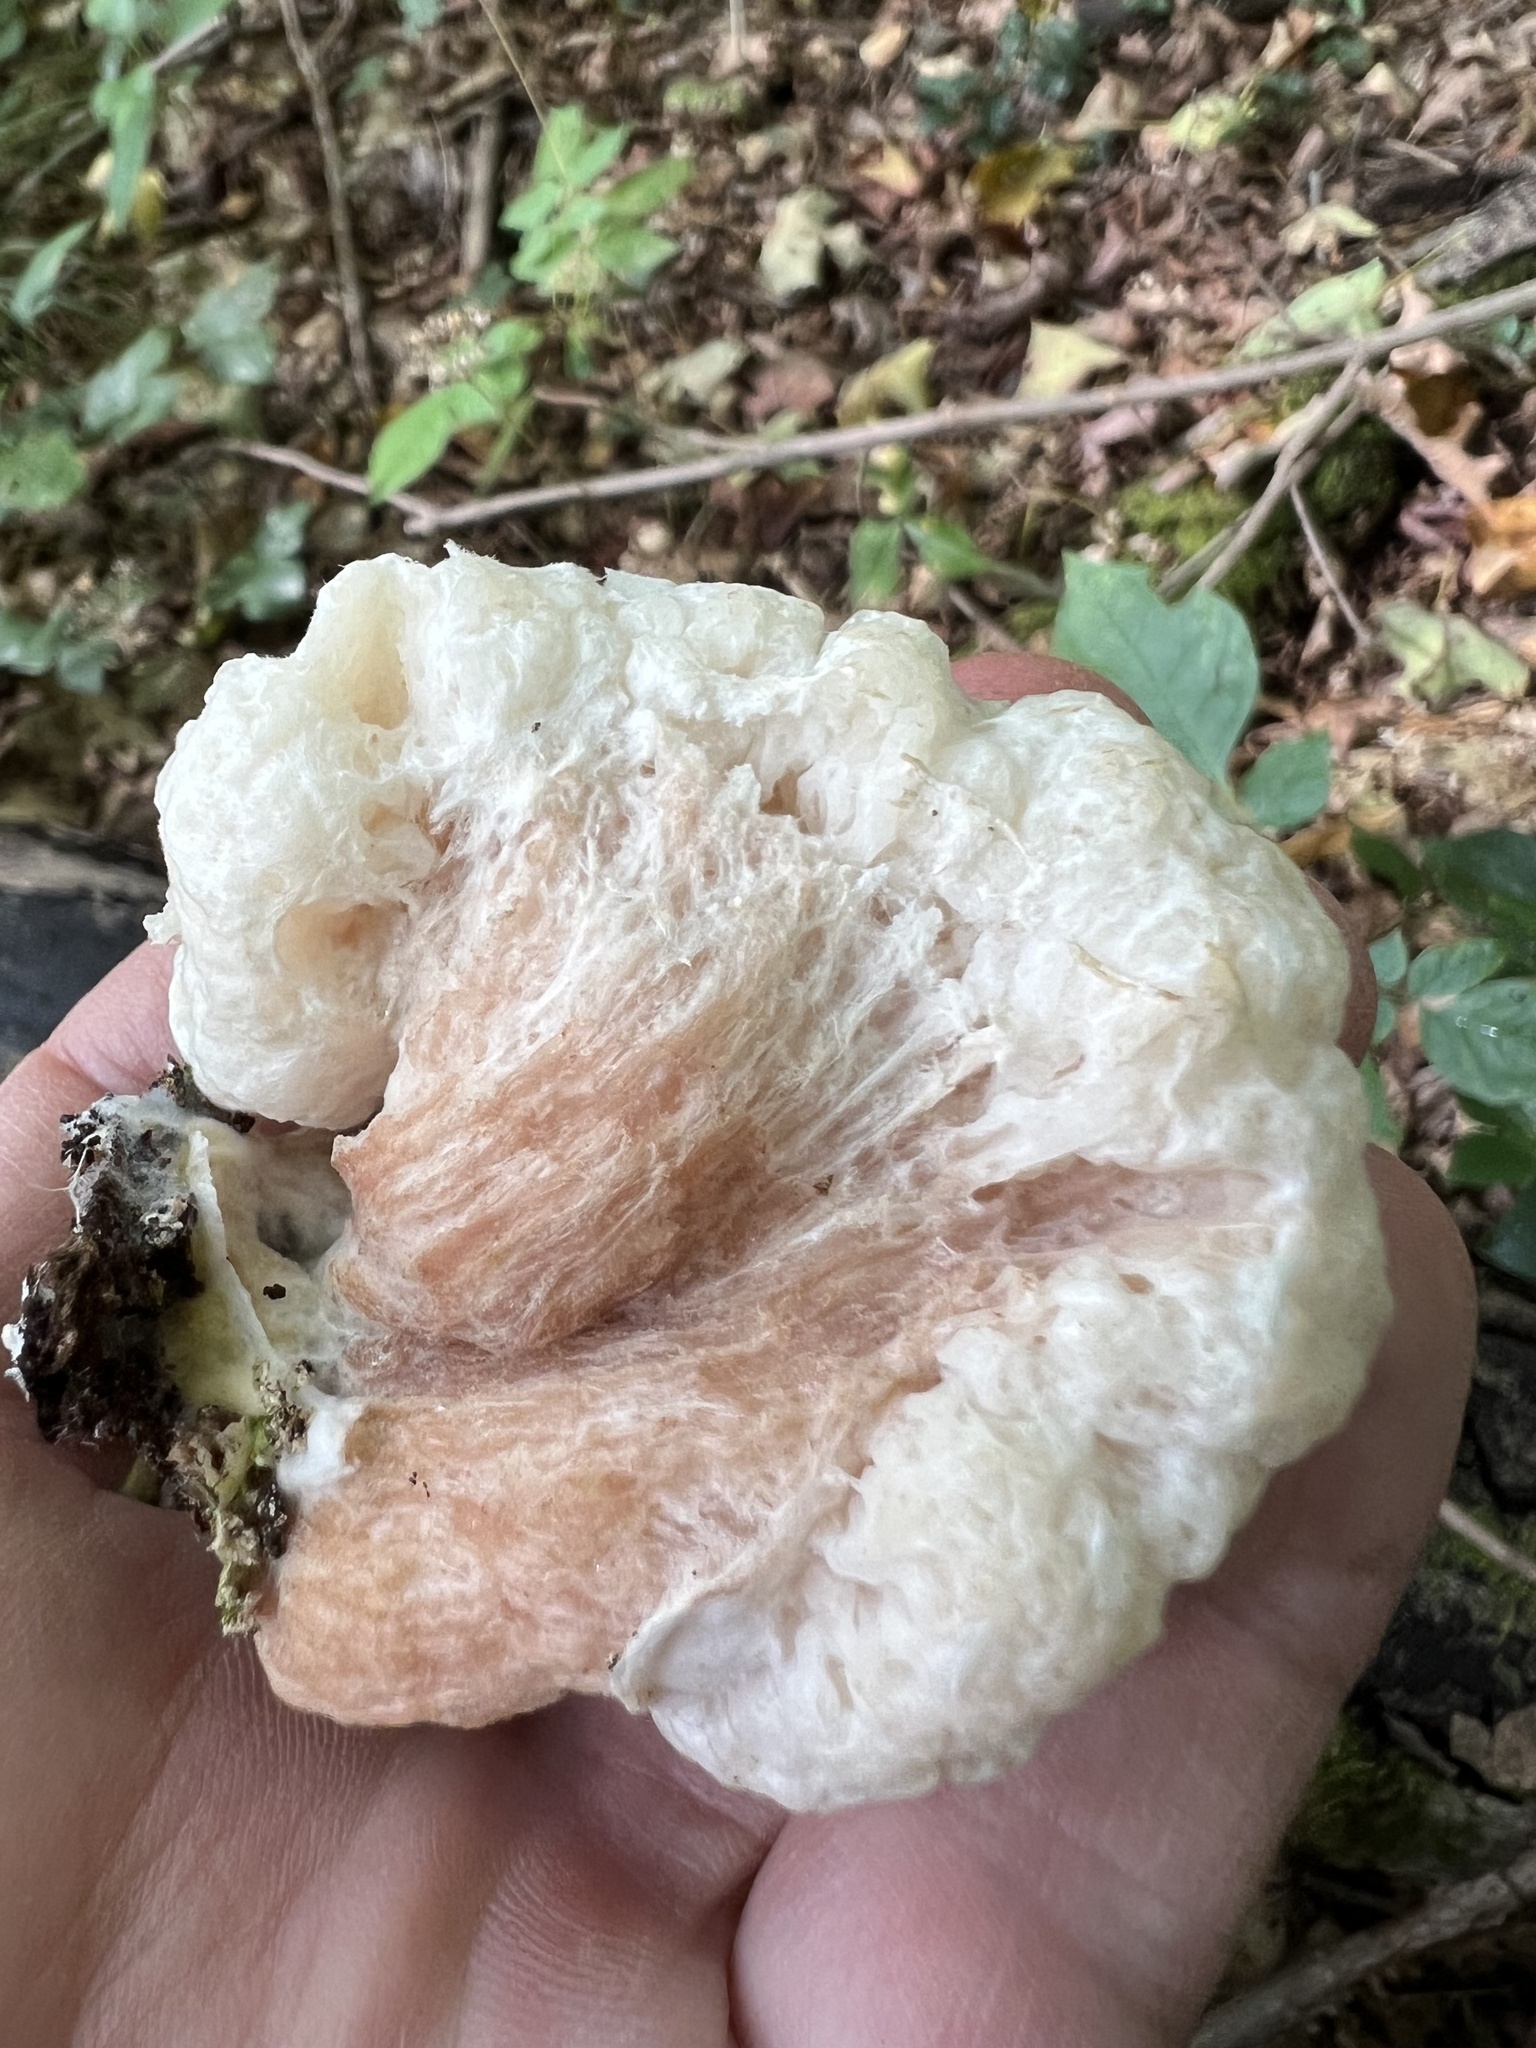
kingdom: Fungi
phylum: Basidiomycota
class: Agaricomycetes
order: Agaricales
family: Entolomataceae
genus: Entoloma
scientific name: Entoloma abortivum
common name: Aborted entoloma
